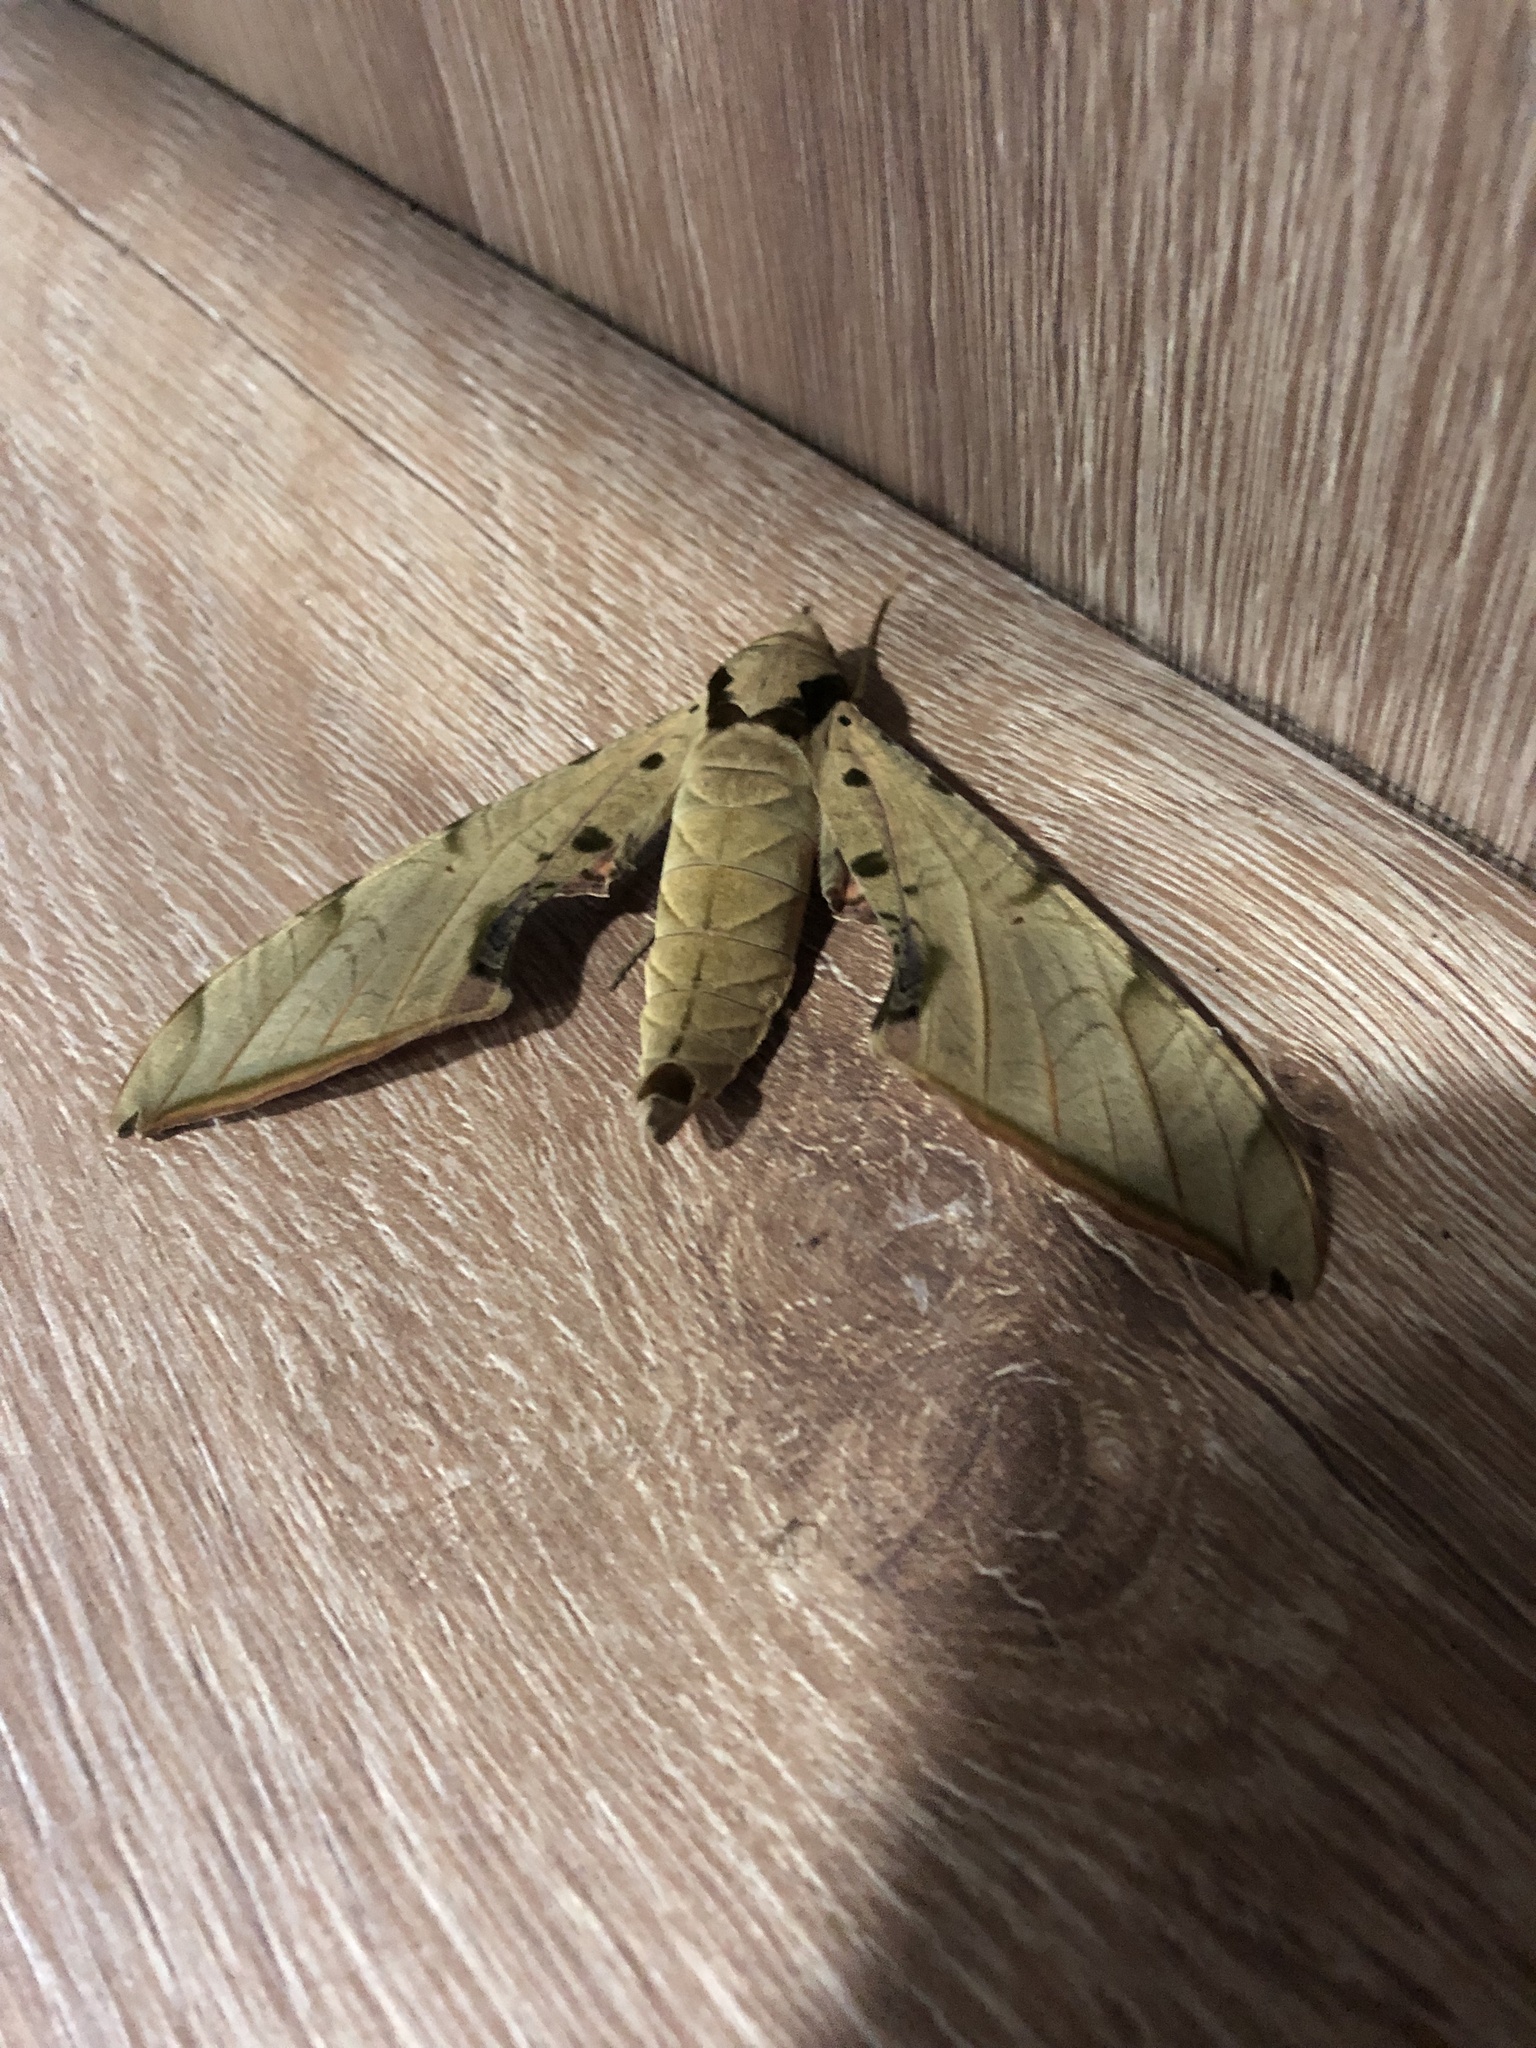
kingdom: Animalia
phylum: Arthropoda
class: Insecta
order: Lepidoptera
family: Sphingidae
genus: Protambulyx
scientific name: Protambulyx strigilis
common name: Streaked sphinx
